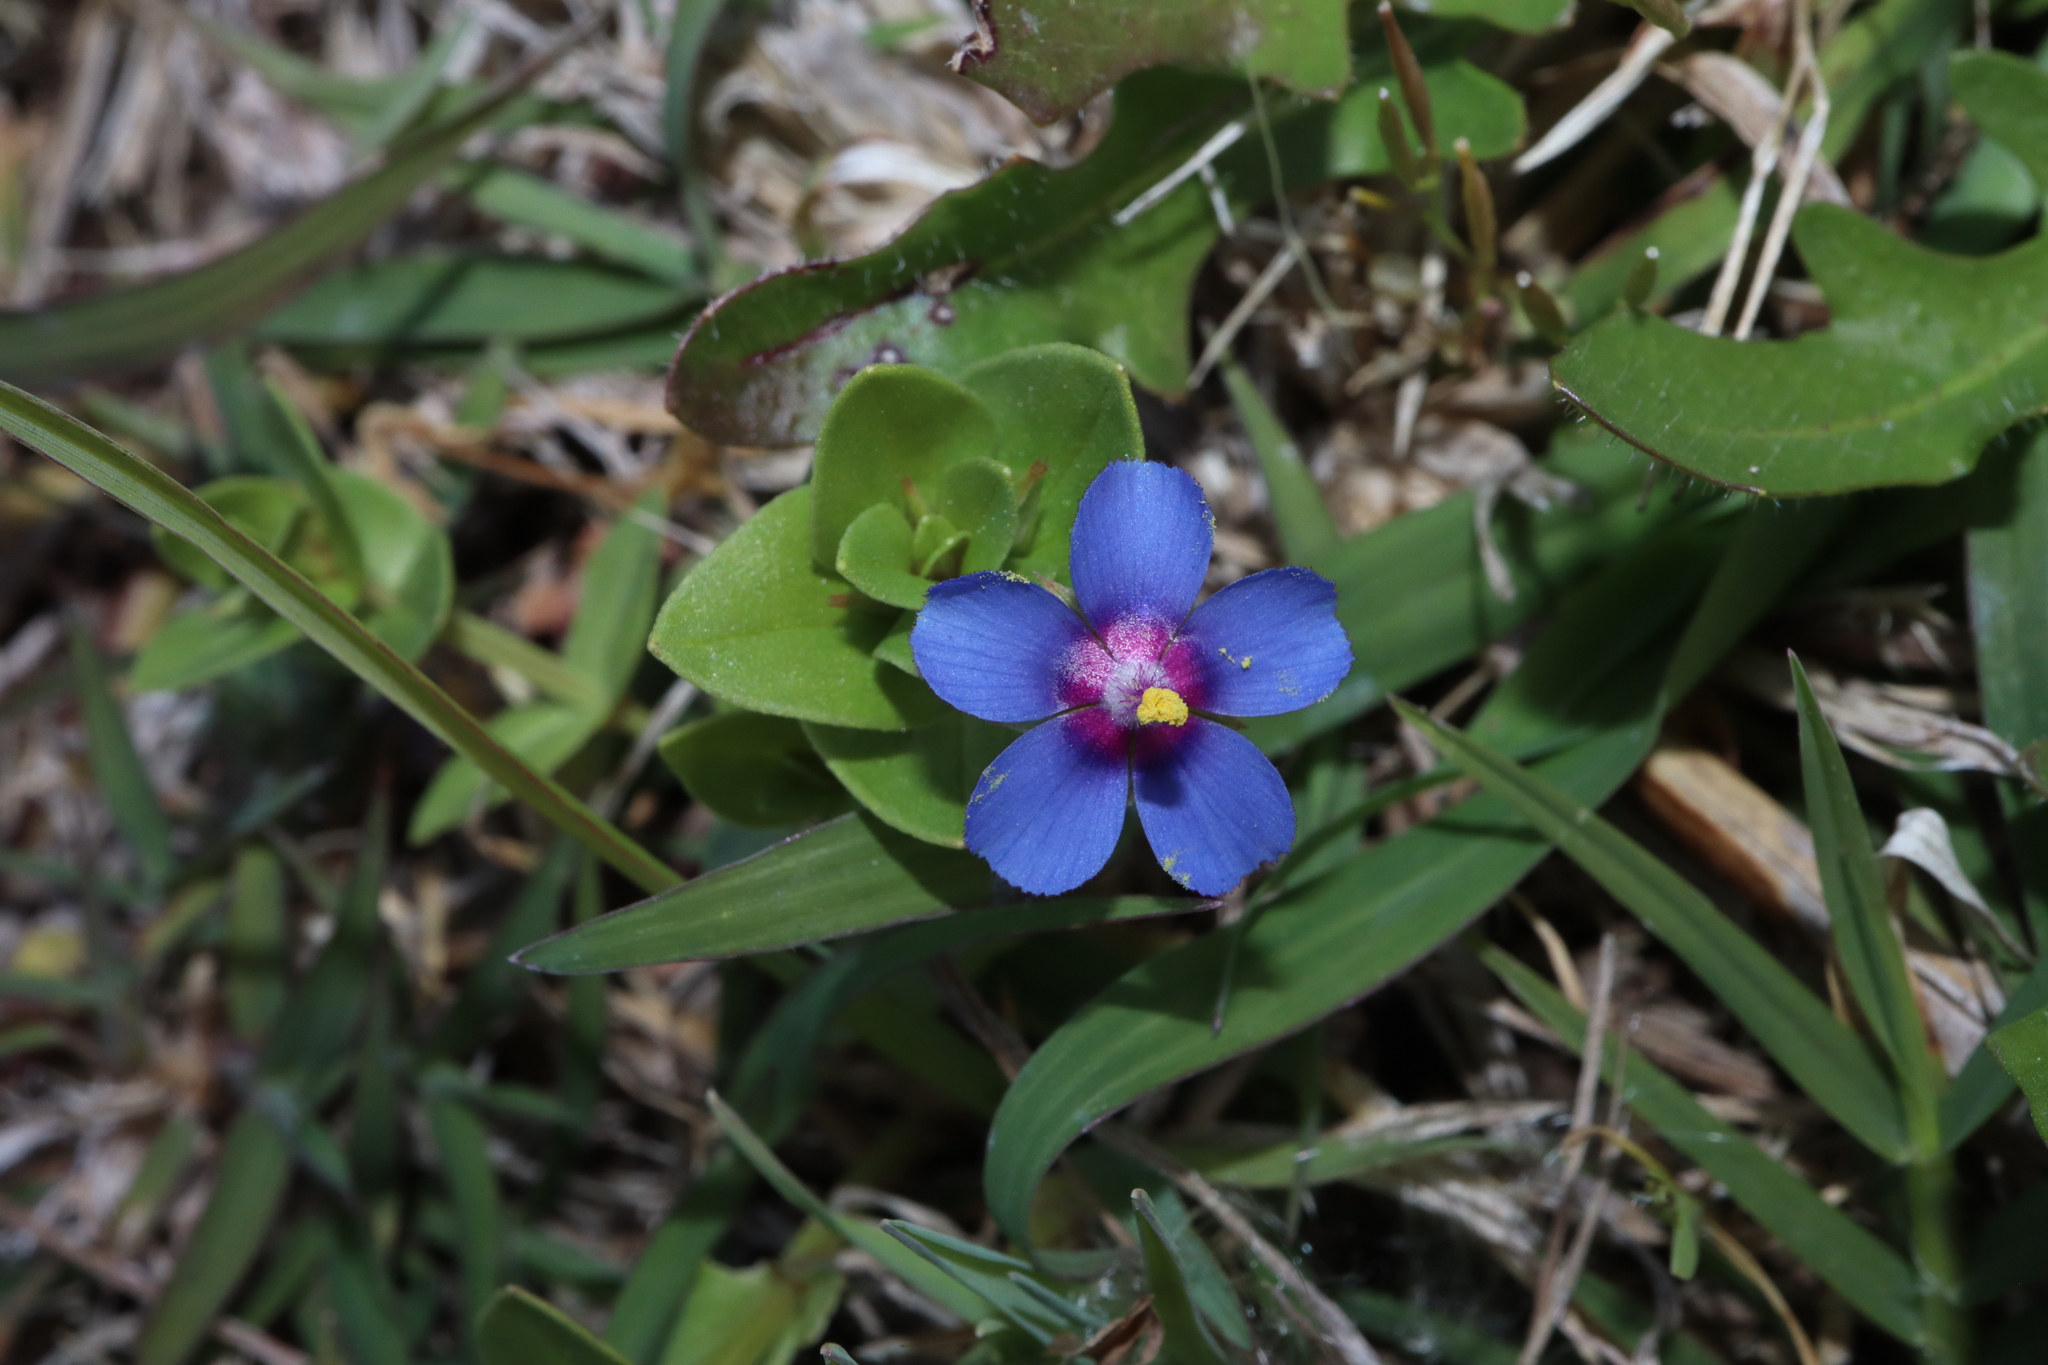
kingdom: Plantae
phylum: Tracheophyta
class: Magnoliopsida
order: Ericales
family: Primulaceae
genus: Lysimachia
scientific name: Lysimachia loeflingii
